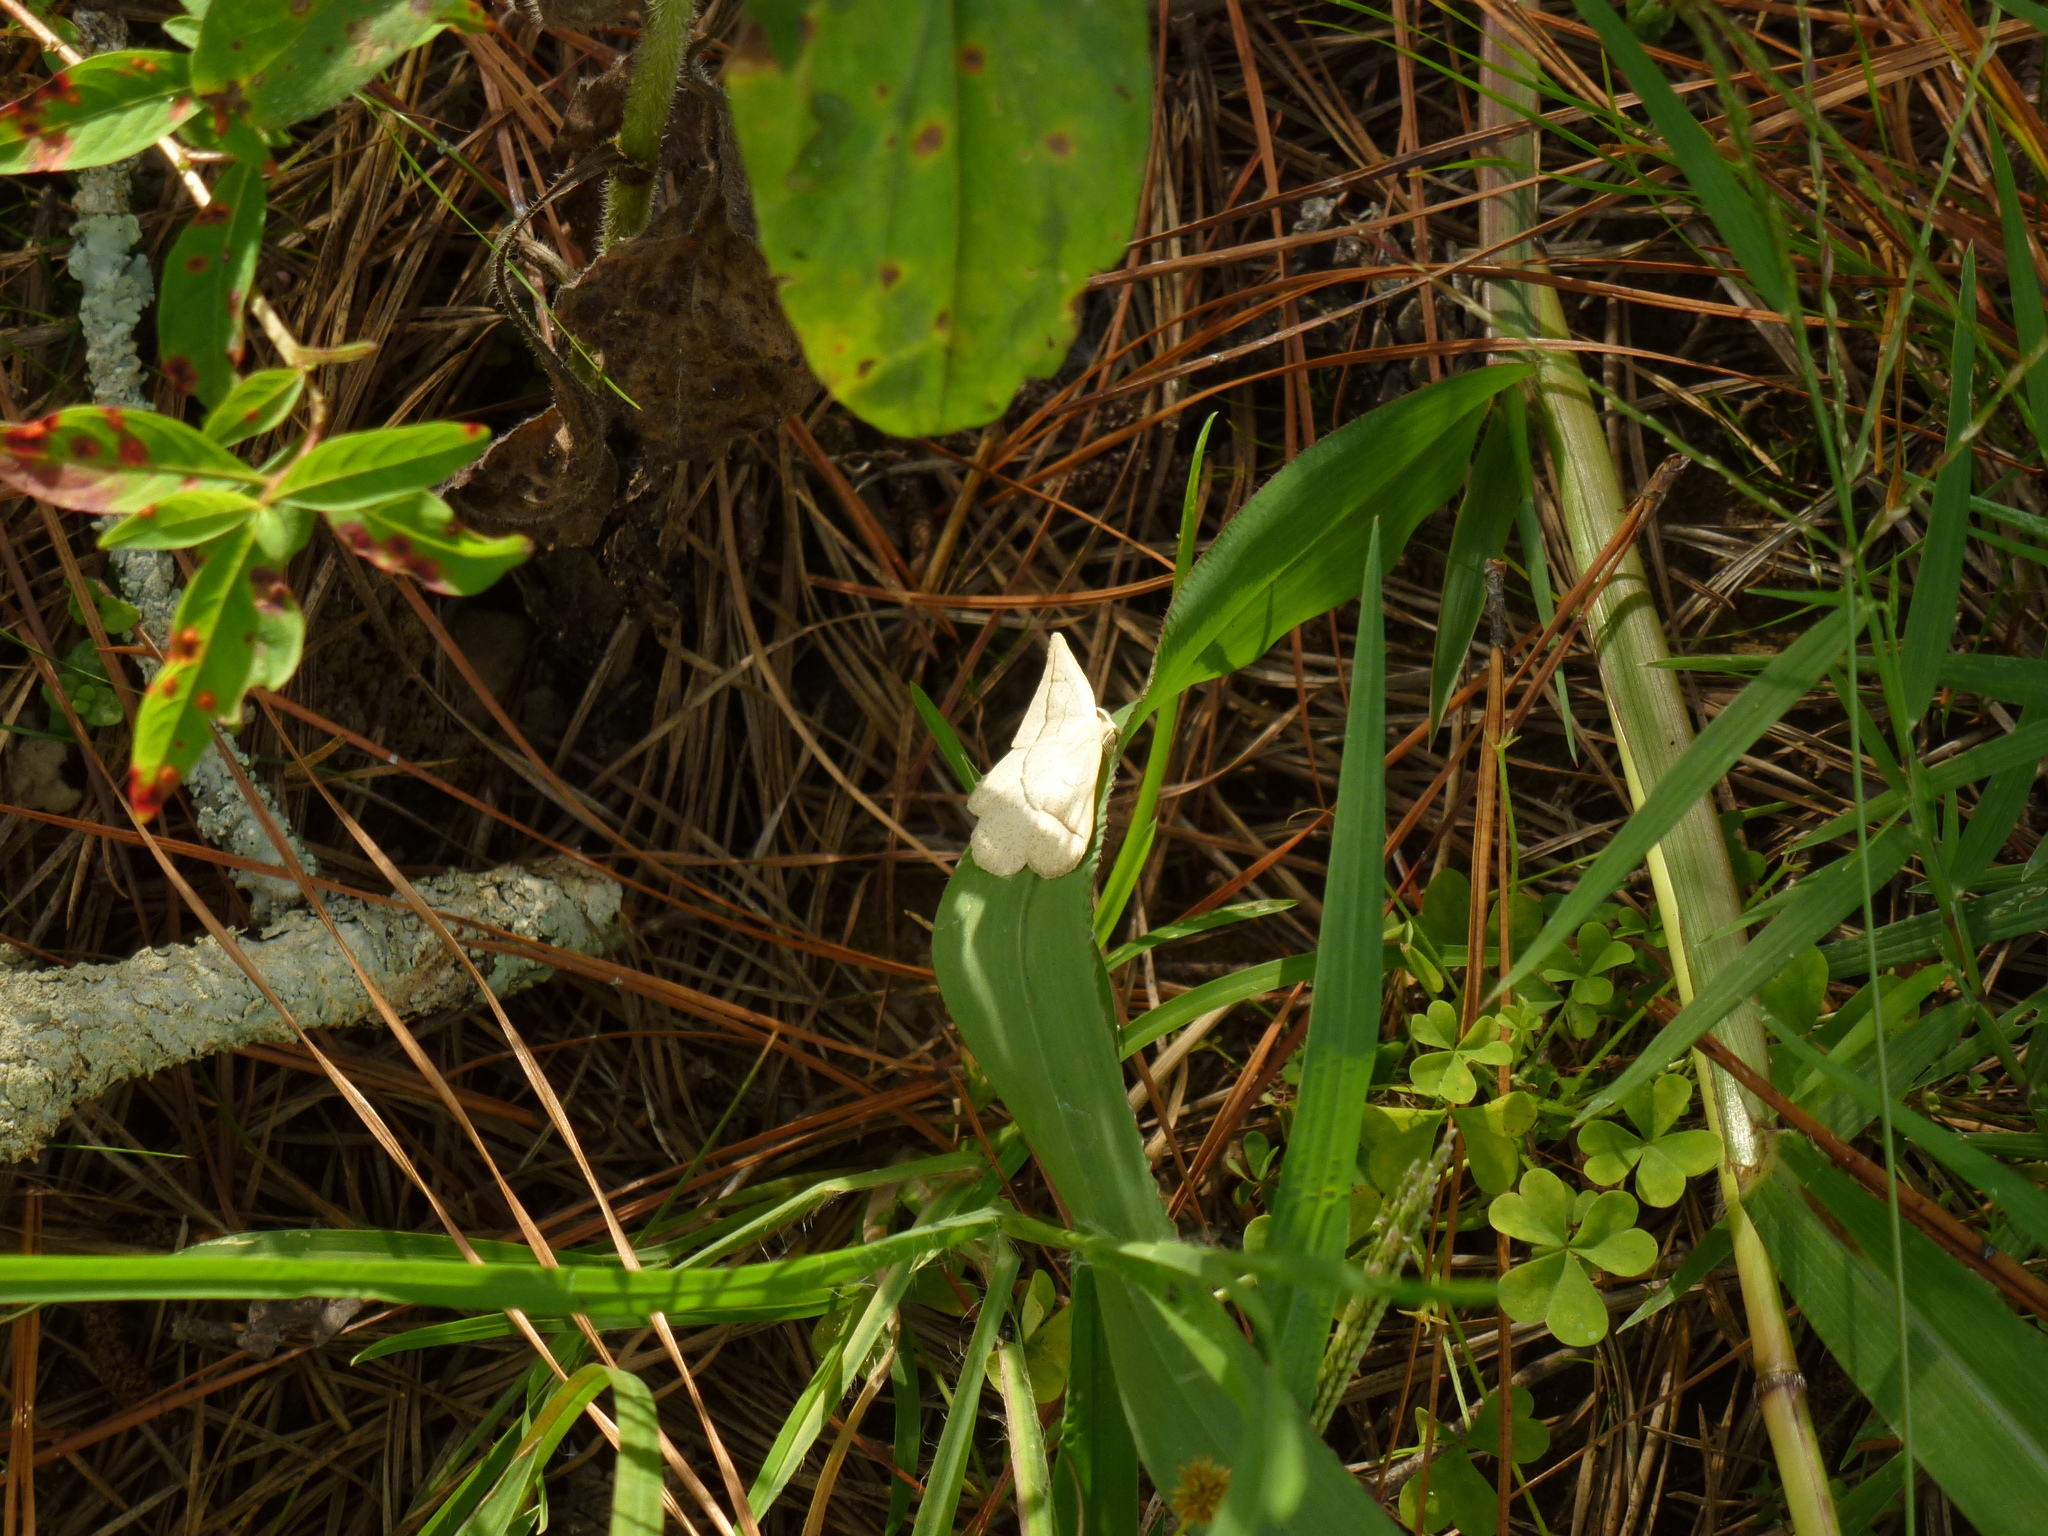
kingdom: Animalia
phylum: Arthropoda
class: Insecta
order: Lepidoptera
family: Geometridae
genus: Eusarca
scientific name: Eusarca confusaria
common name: Confused eusarca
